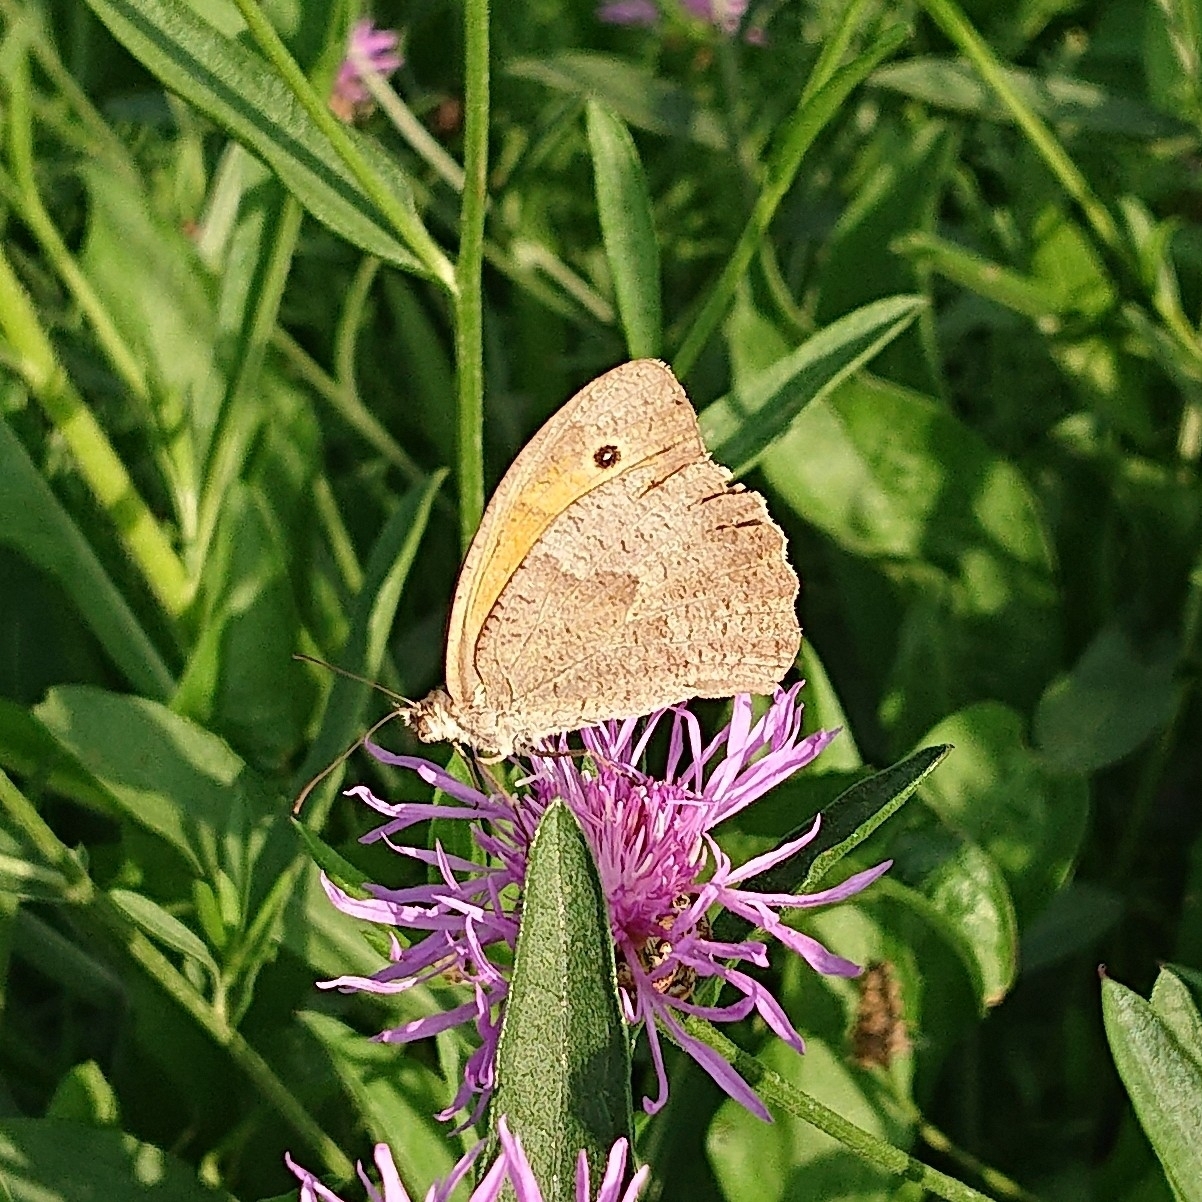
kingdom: Animalia
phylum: Arthropoda
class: Insecta
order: Lepidoptera
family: Nymphalidae
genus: Maniola
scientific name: Maniola jurtina
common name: Meadow brown
